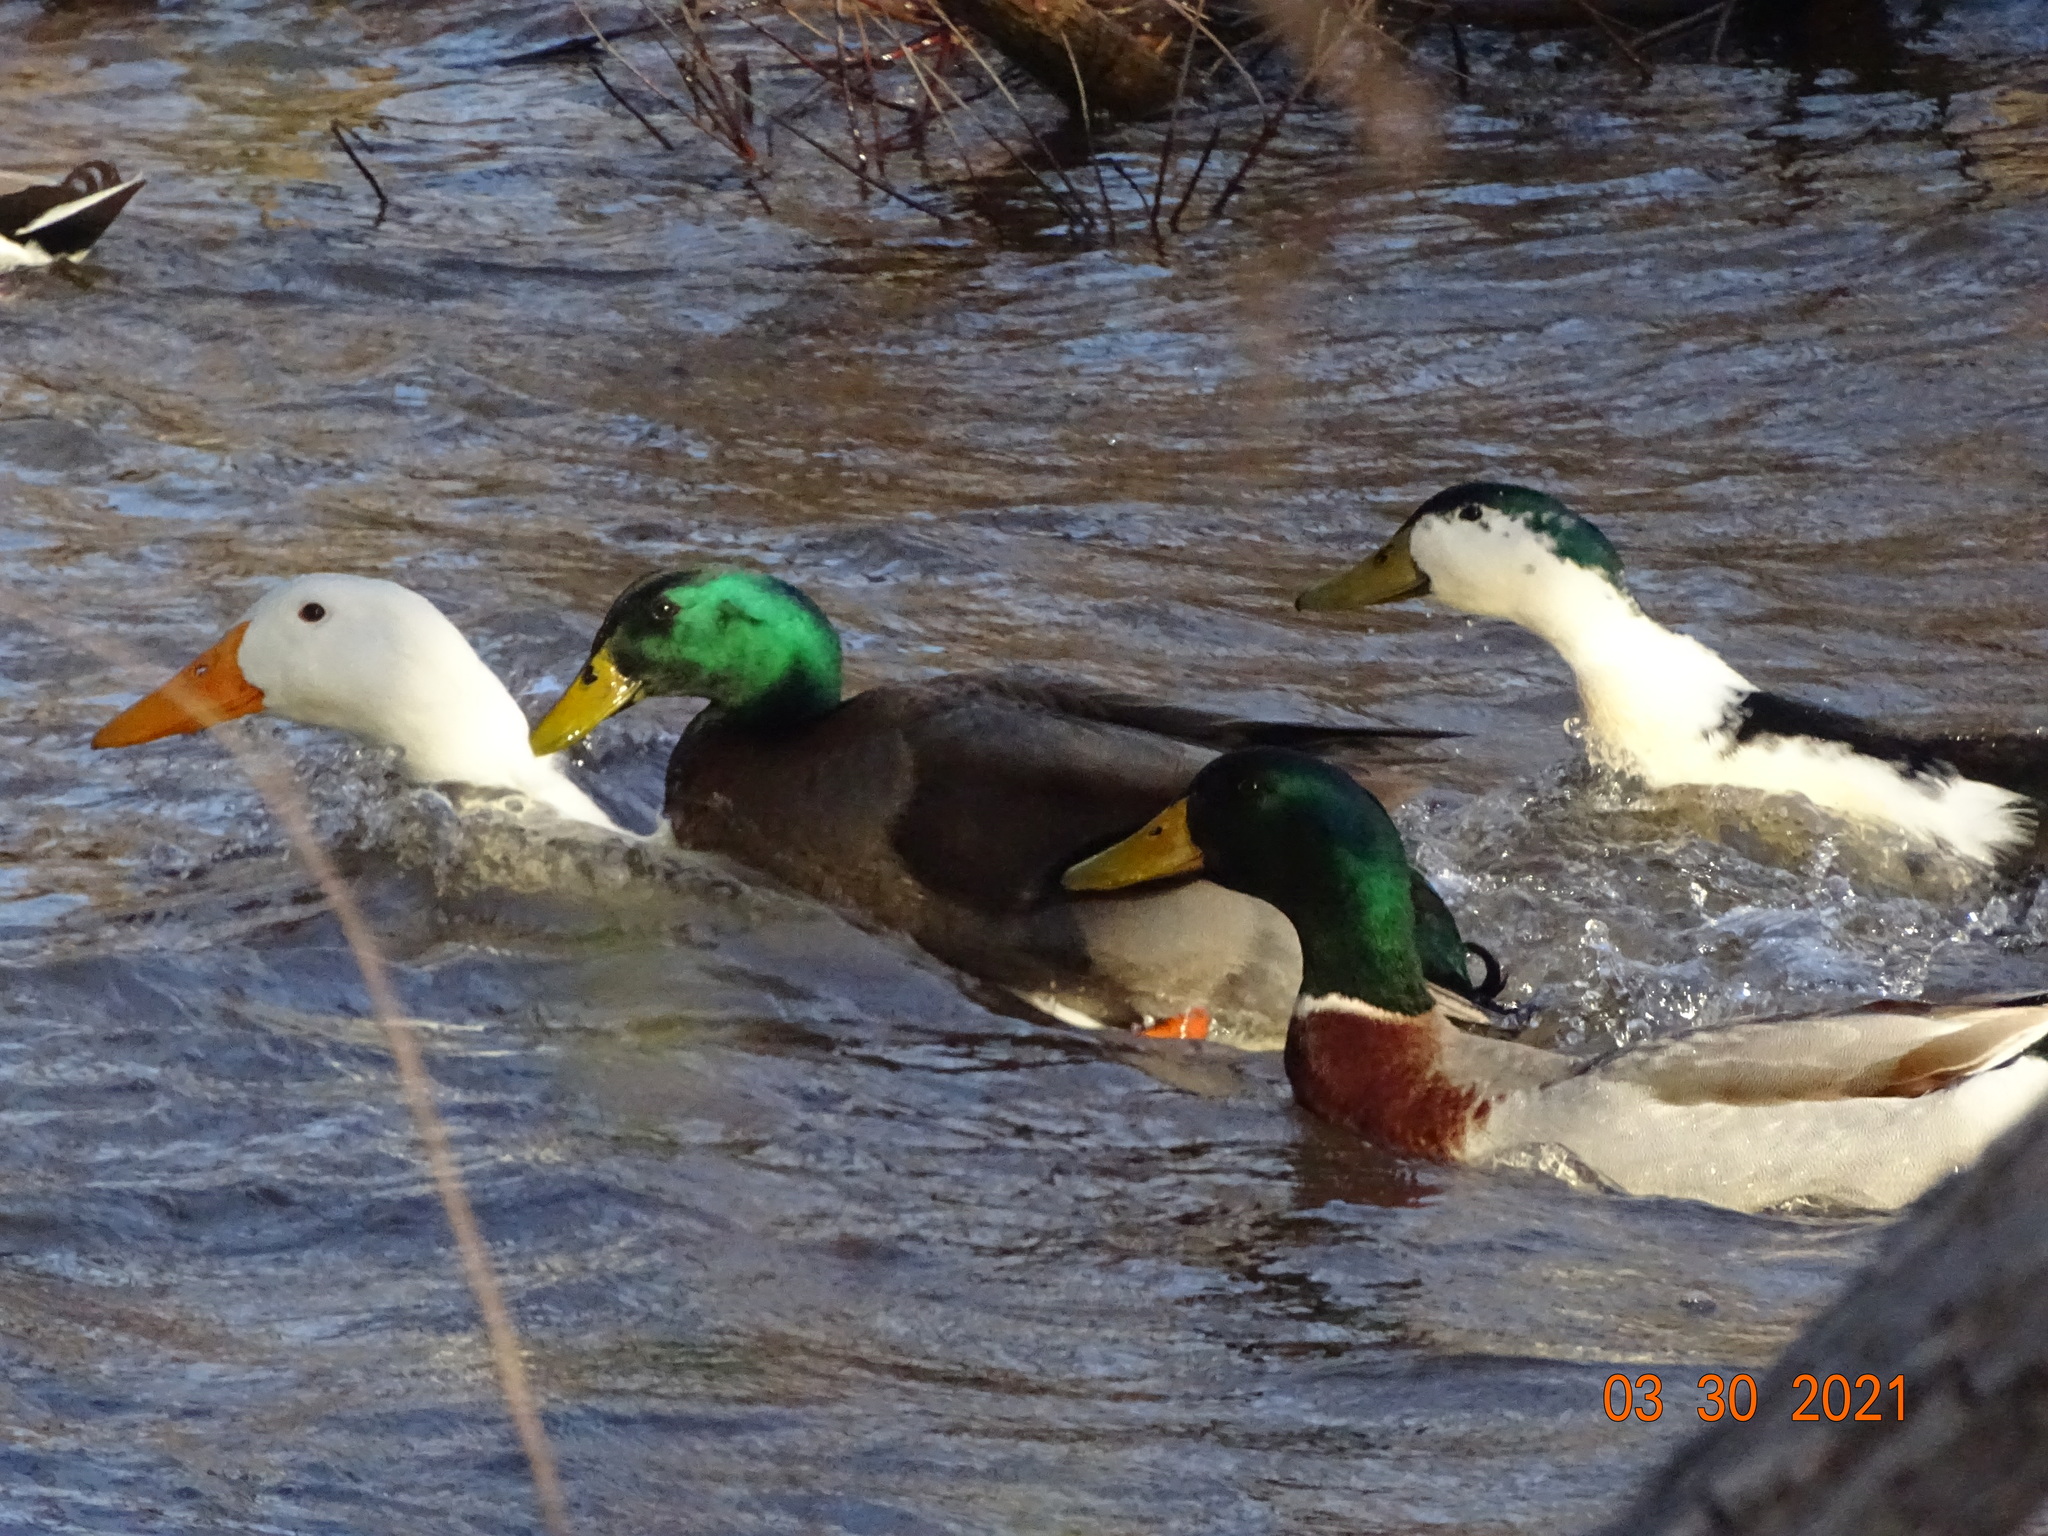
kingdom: Animalia
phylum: Chordata
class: Aves
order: Anseriformes
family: Anatidae
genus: Anas
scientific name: Anas platyrhynchos
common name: Mallard
